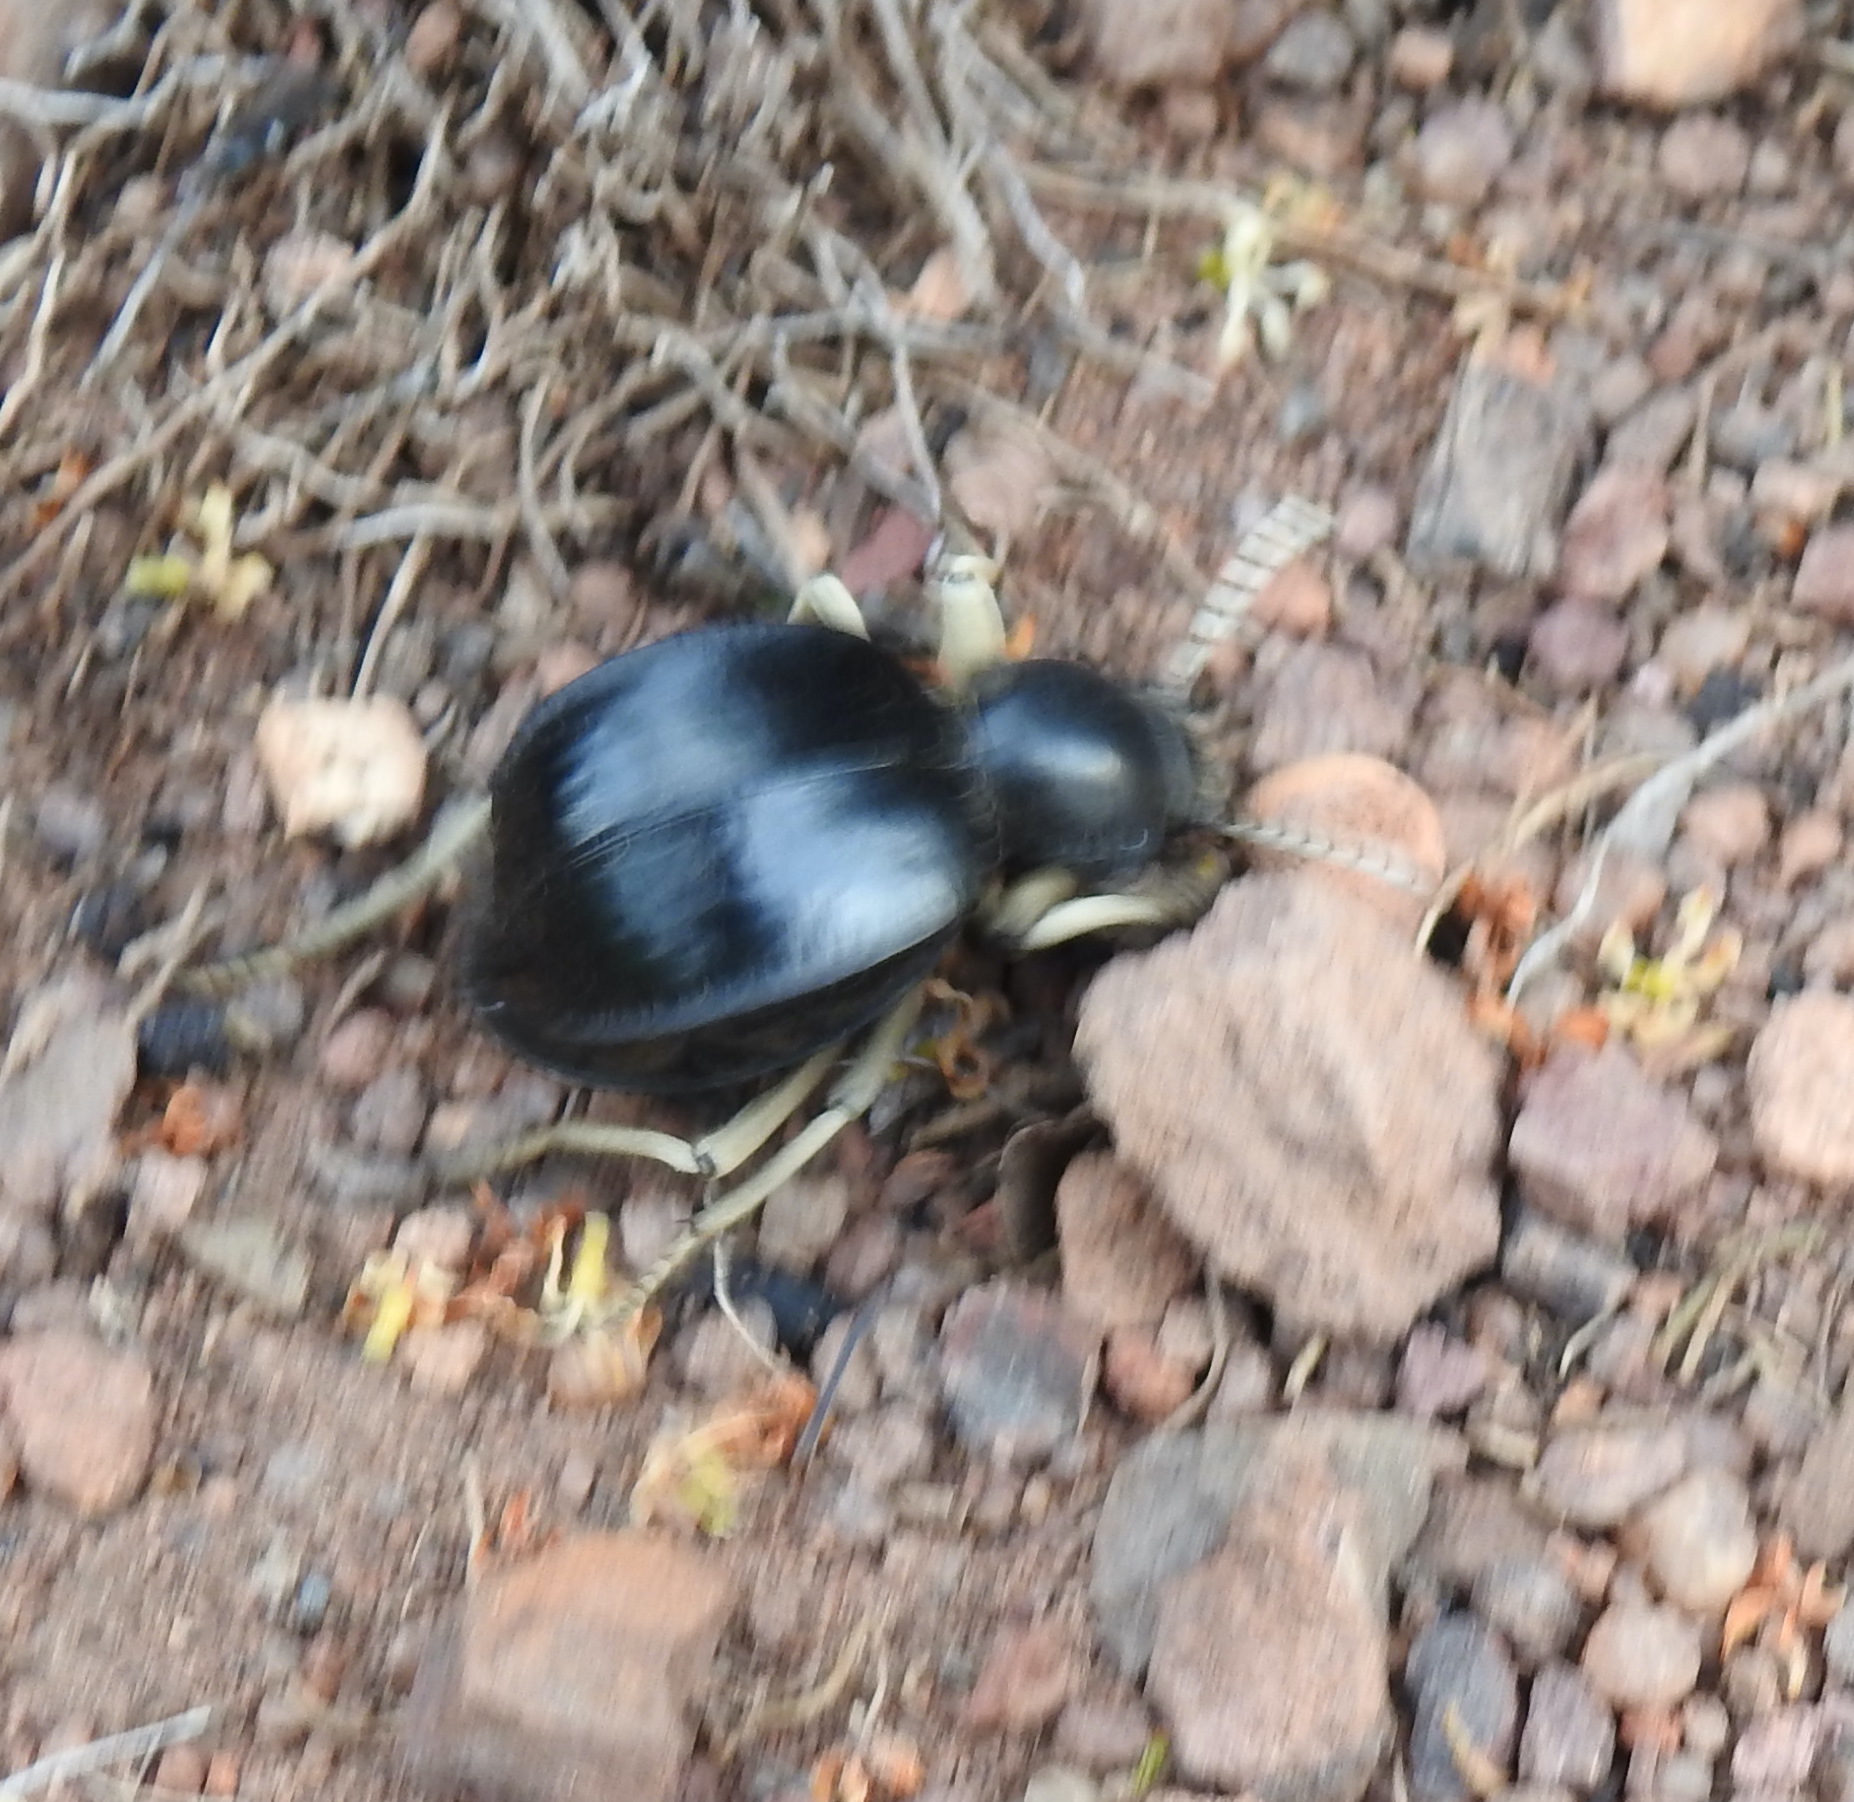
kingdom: Animalia
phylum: Arthropoda
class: Insecta
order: Coleoptera
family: Tenebrionidae
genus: Dichtha
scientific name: Dichtha cubica
